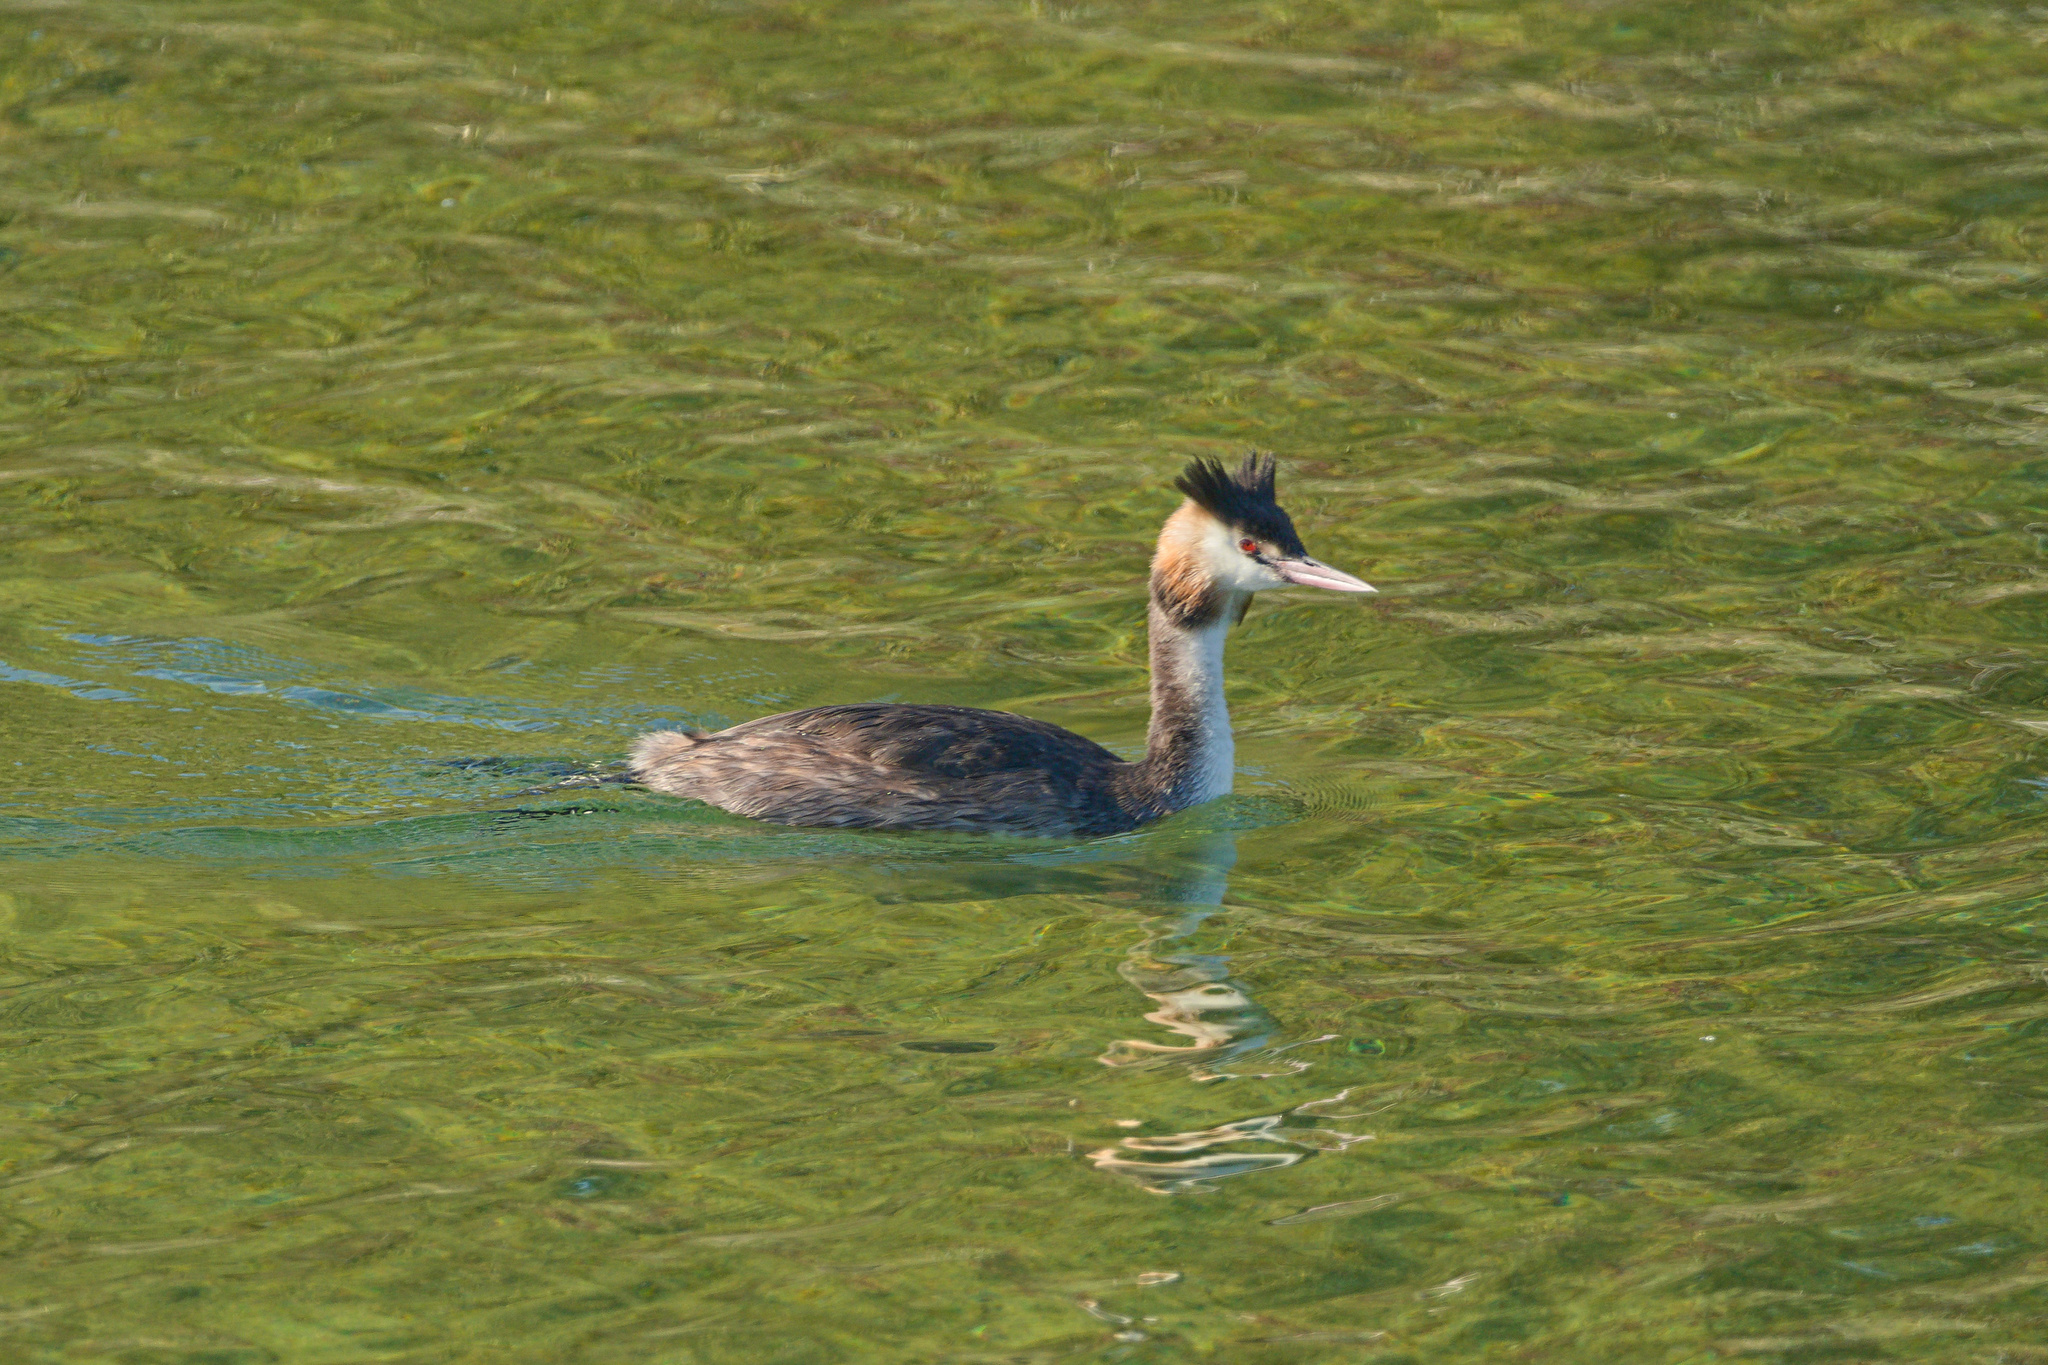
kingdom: Animalia
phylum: Chordata
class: Aves
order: Podicipediformes
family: Podicipedidae
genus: Podiceps
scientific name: Podiceps cristatus
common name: Great crested grebe
